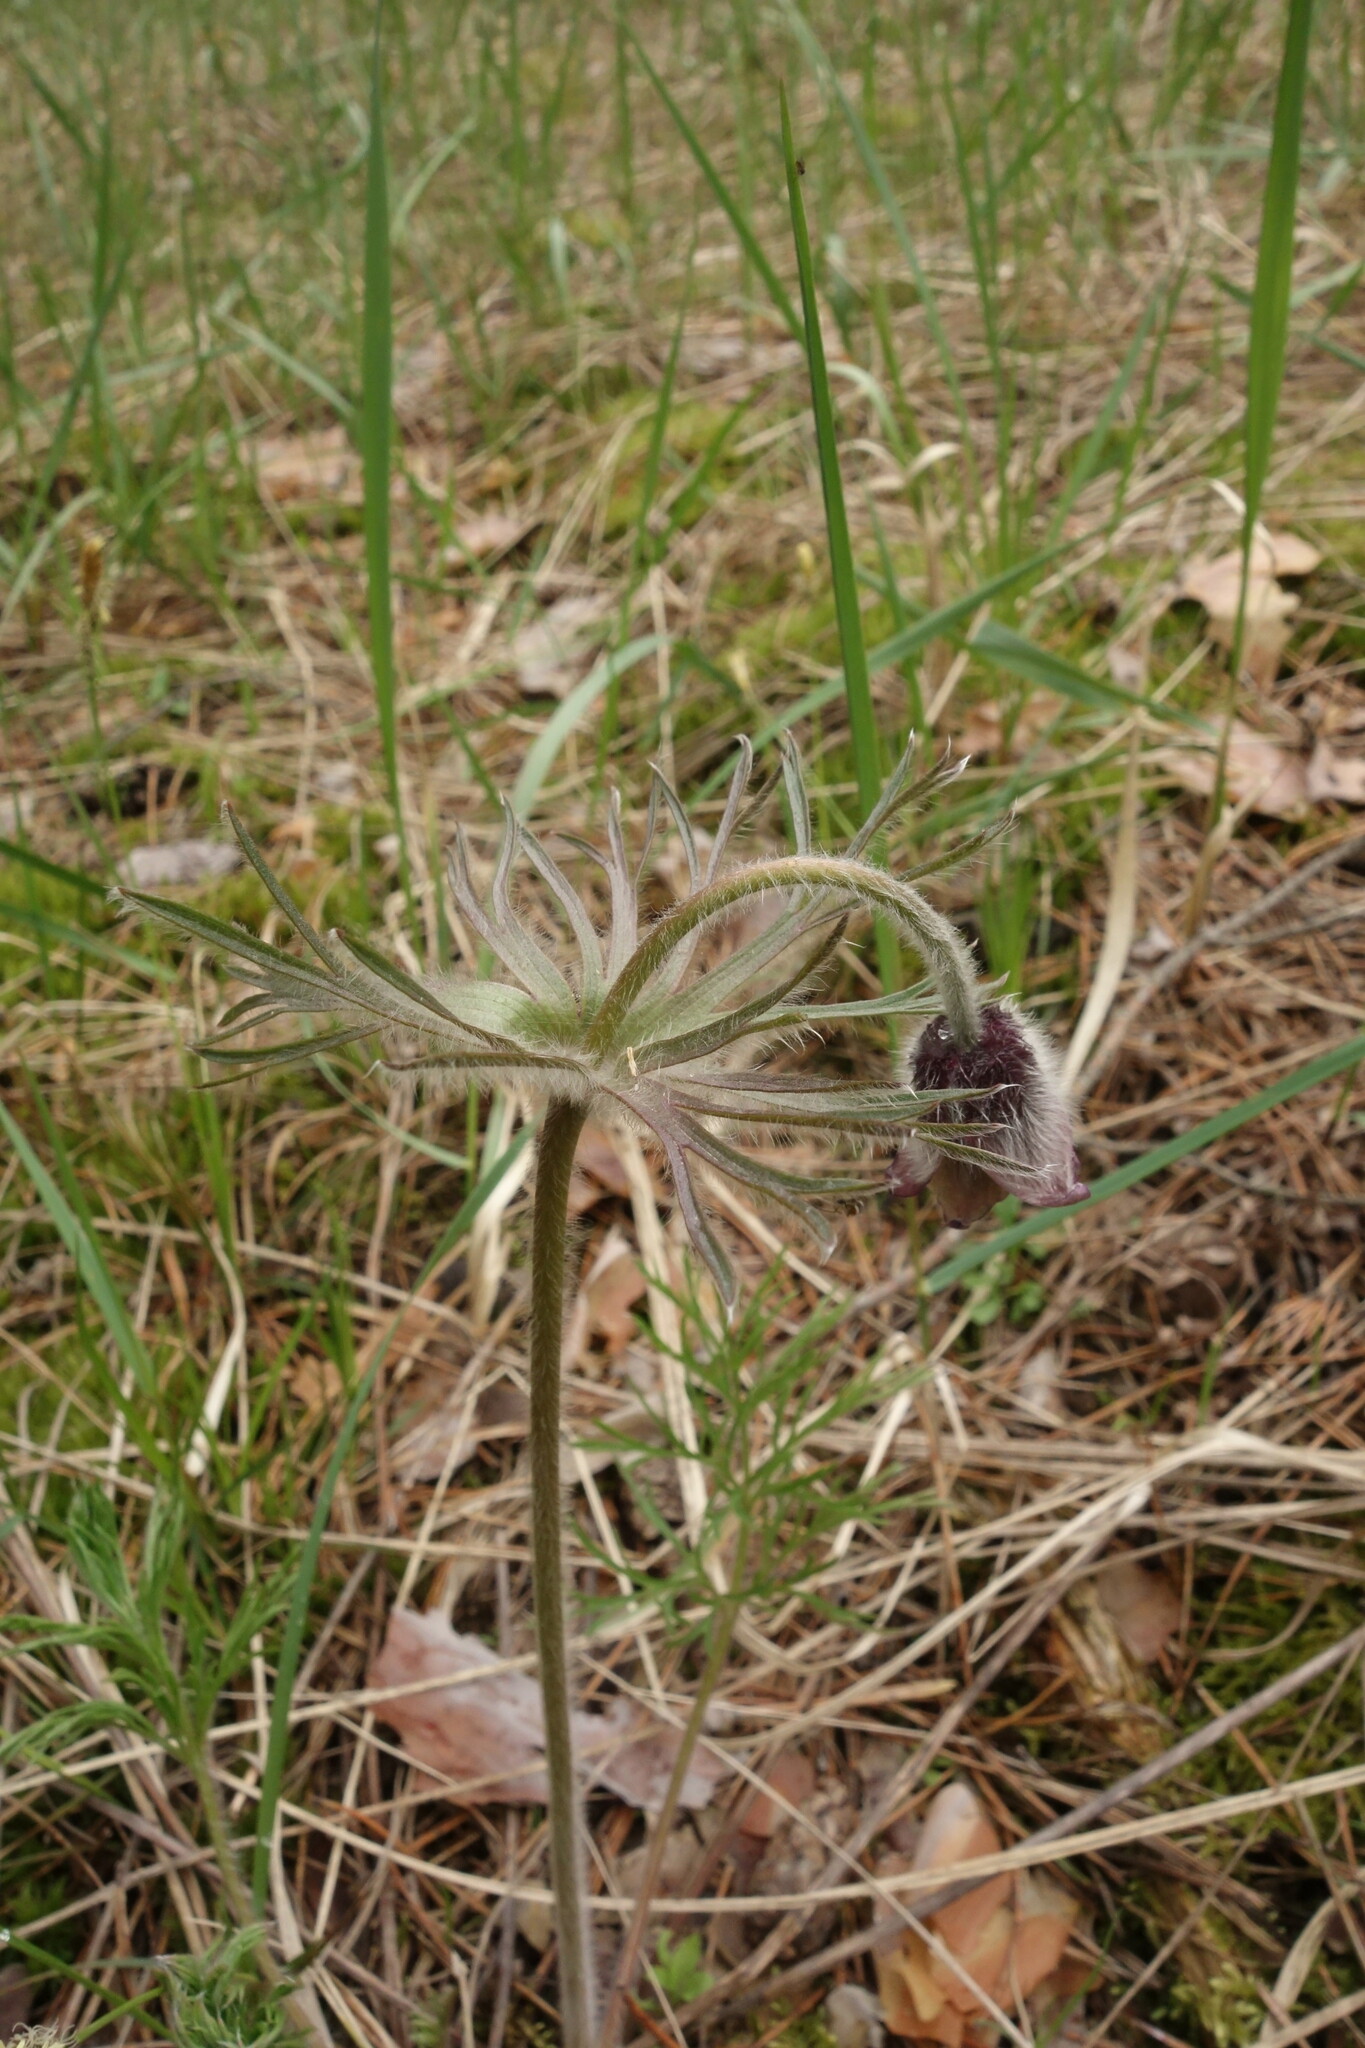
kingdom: Plantae
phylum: Tracheophyta
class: Magnoliopsida
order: Ranunculales
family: Ranunculaceae
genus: Pulsatilla
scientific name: Pulsatilla pratensis
